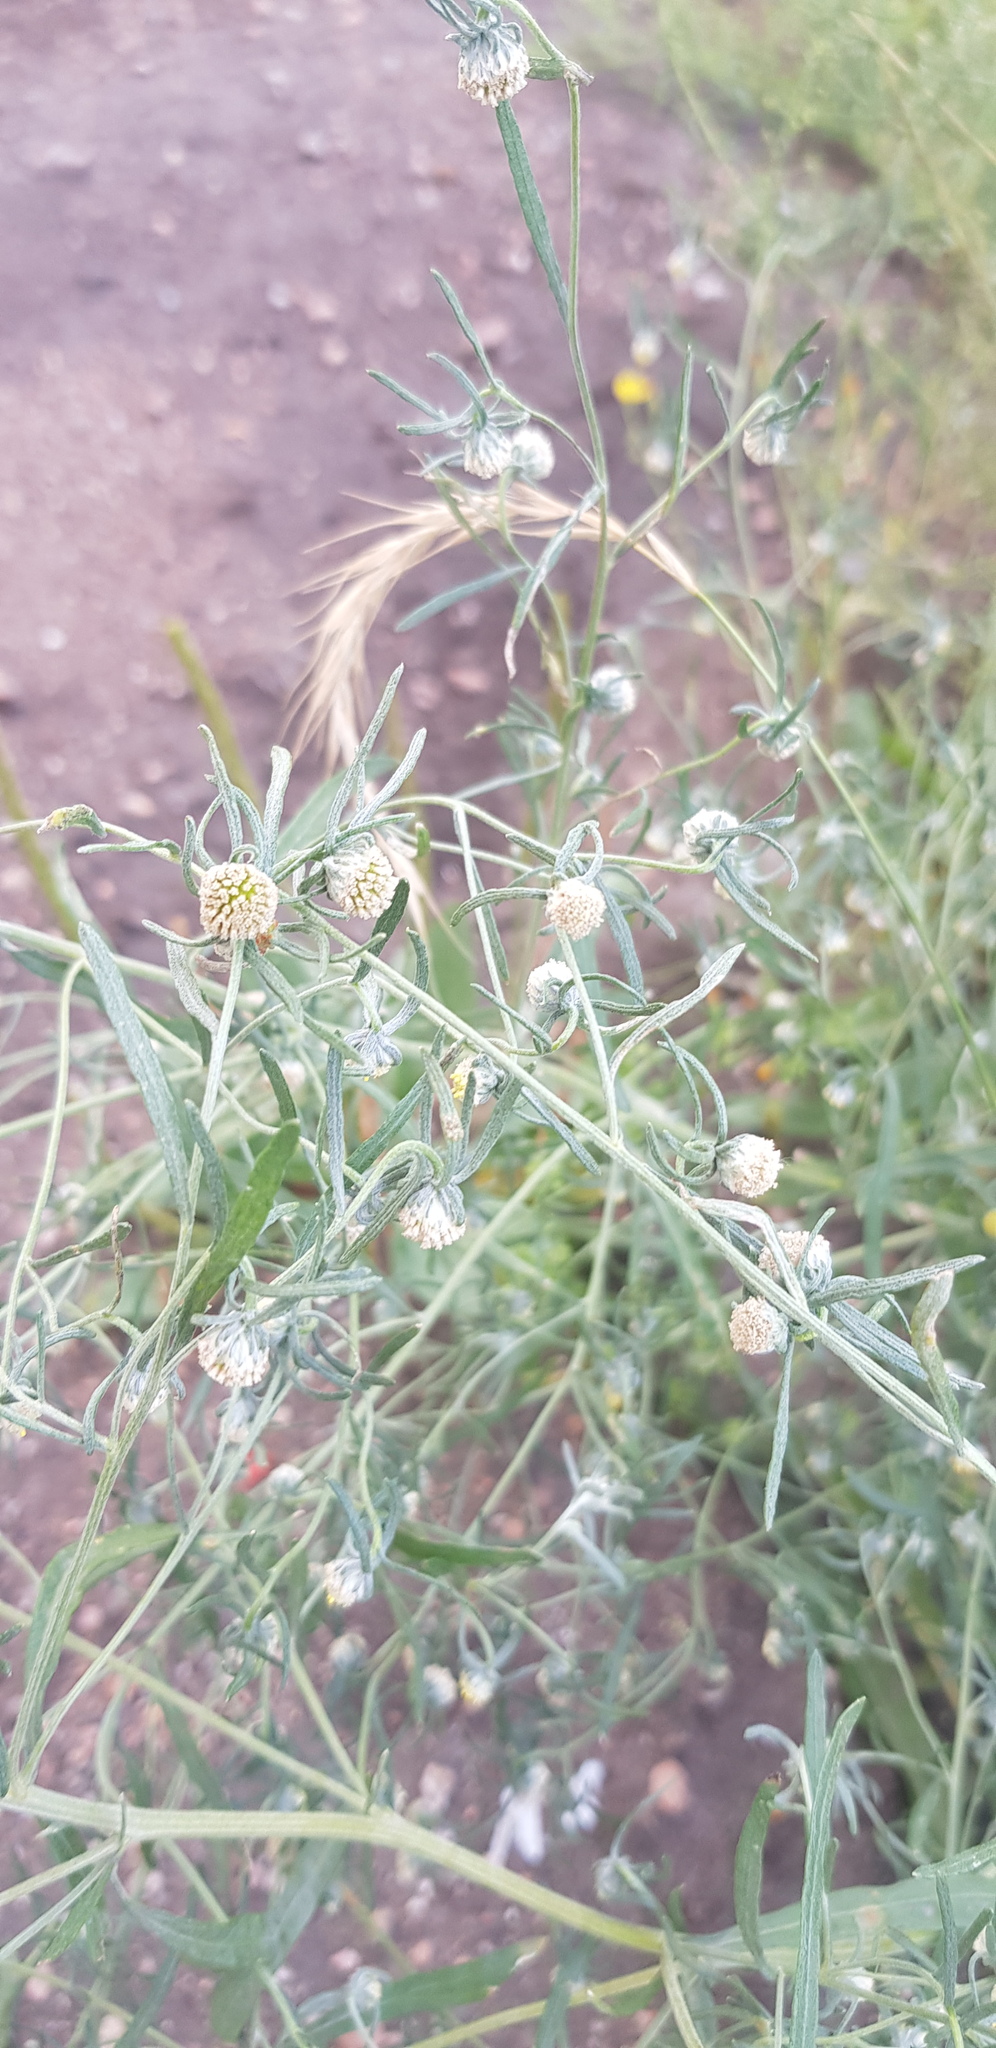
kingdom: Plantae
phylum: Tracheophyta
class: Magnoliopsida
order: Asterales
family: Asteraceae
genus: Artemisia
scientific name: Artemisia macrocephala
